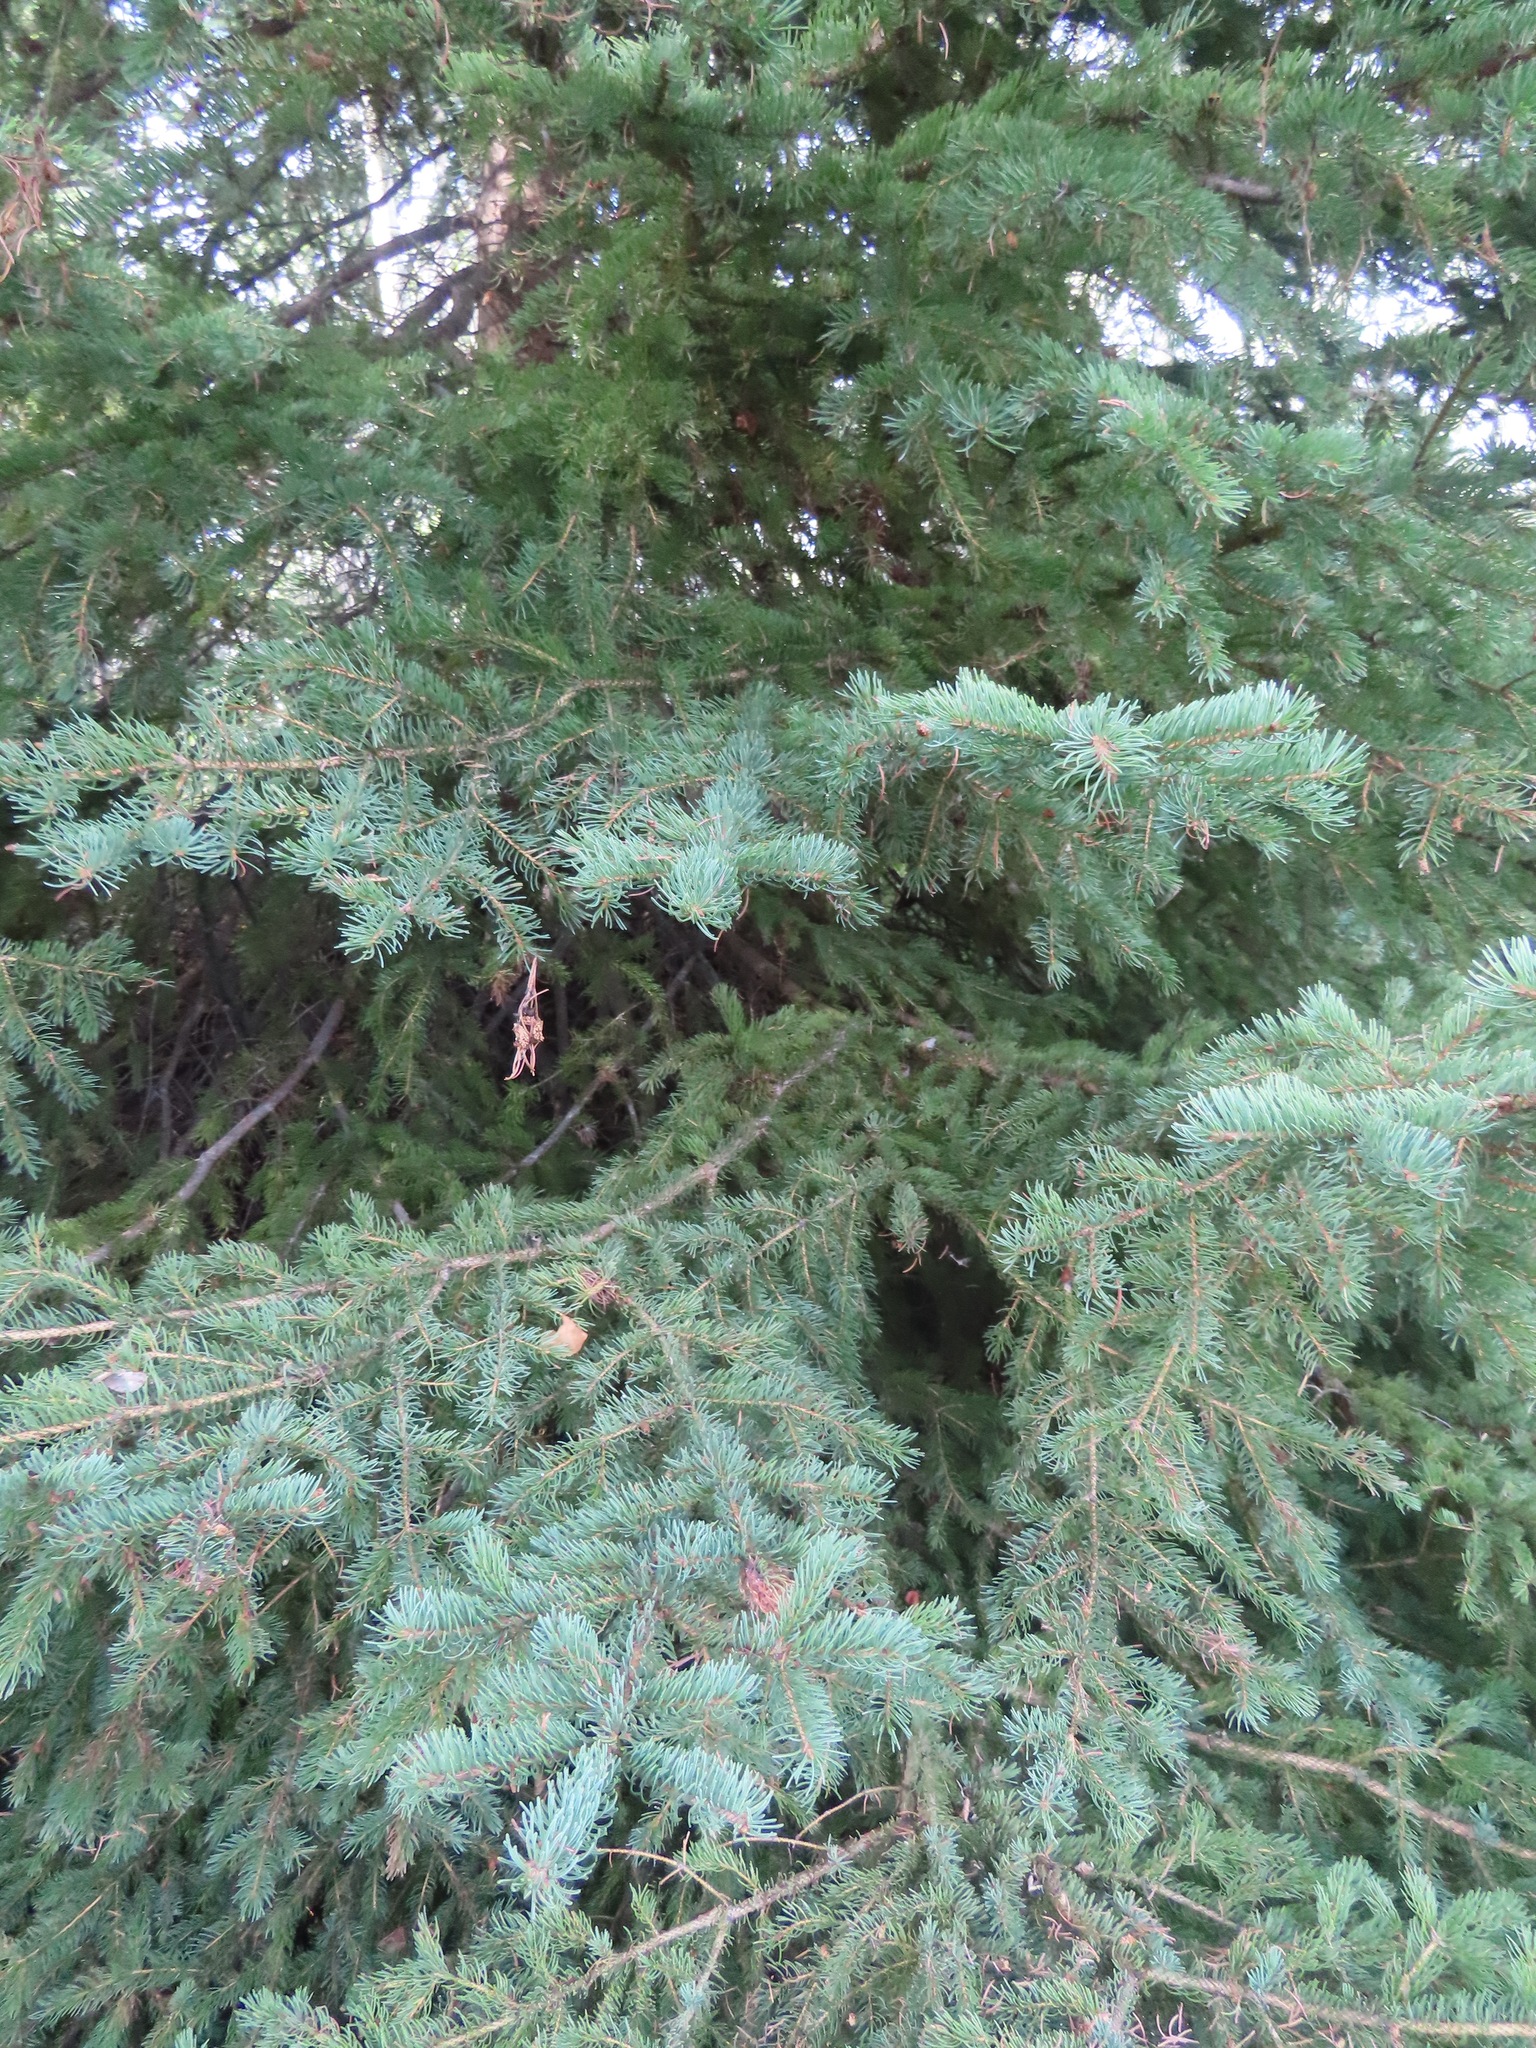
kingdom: Plantae
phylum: Tracheophyta
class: Pinopsida
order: Pinales
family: Pinaceae
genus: Picea
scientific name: Picea
